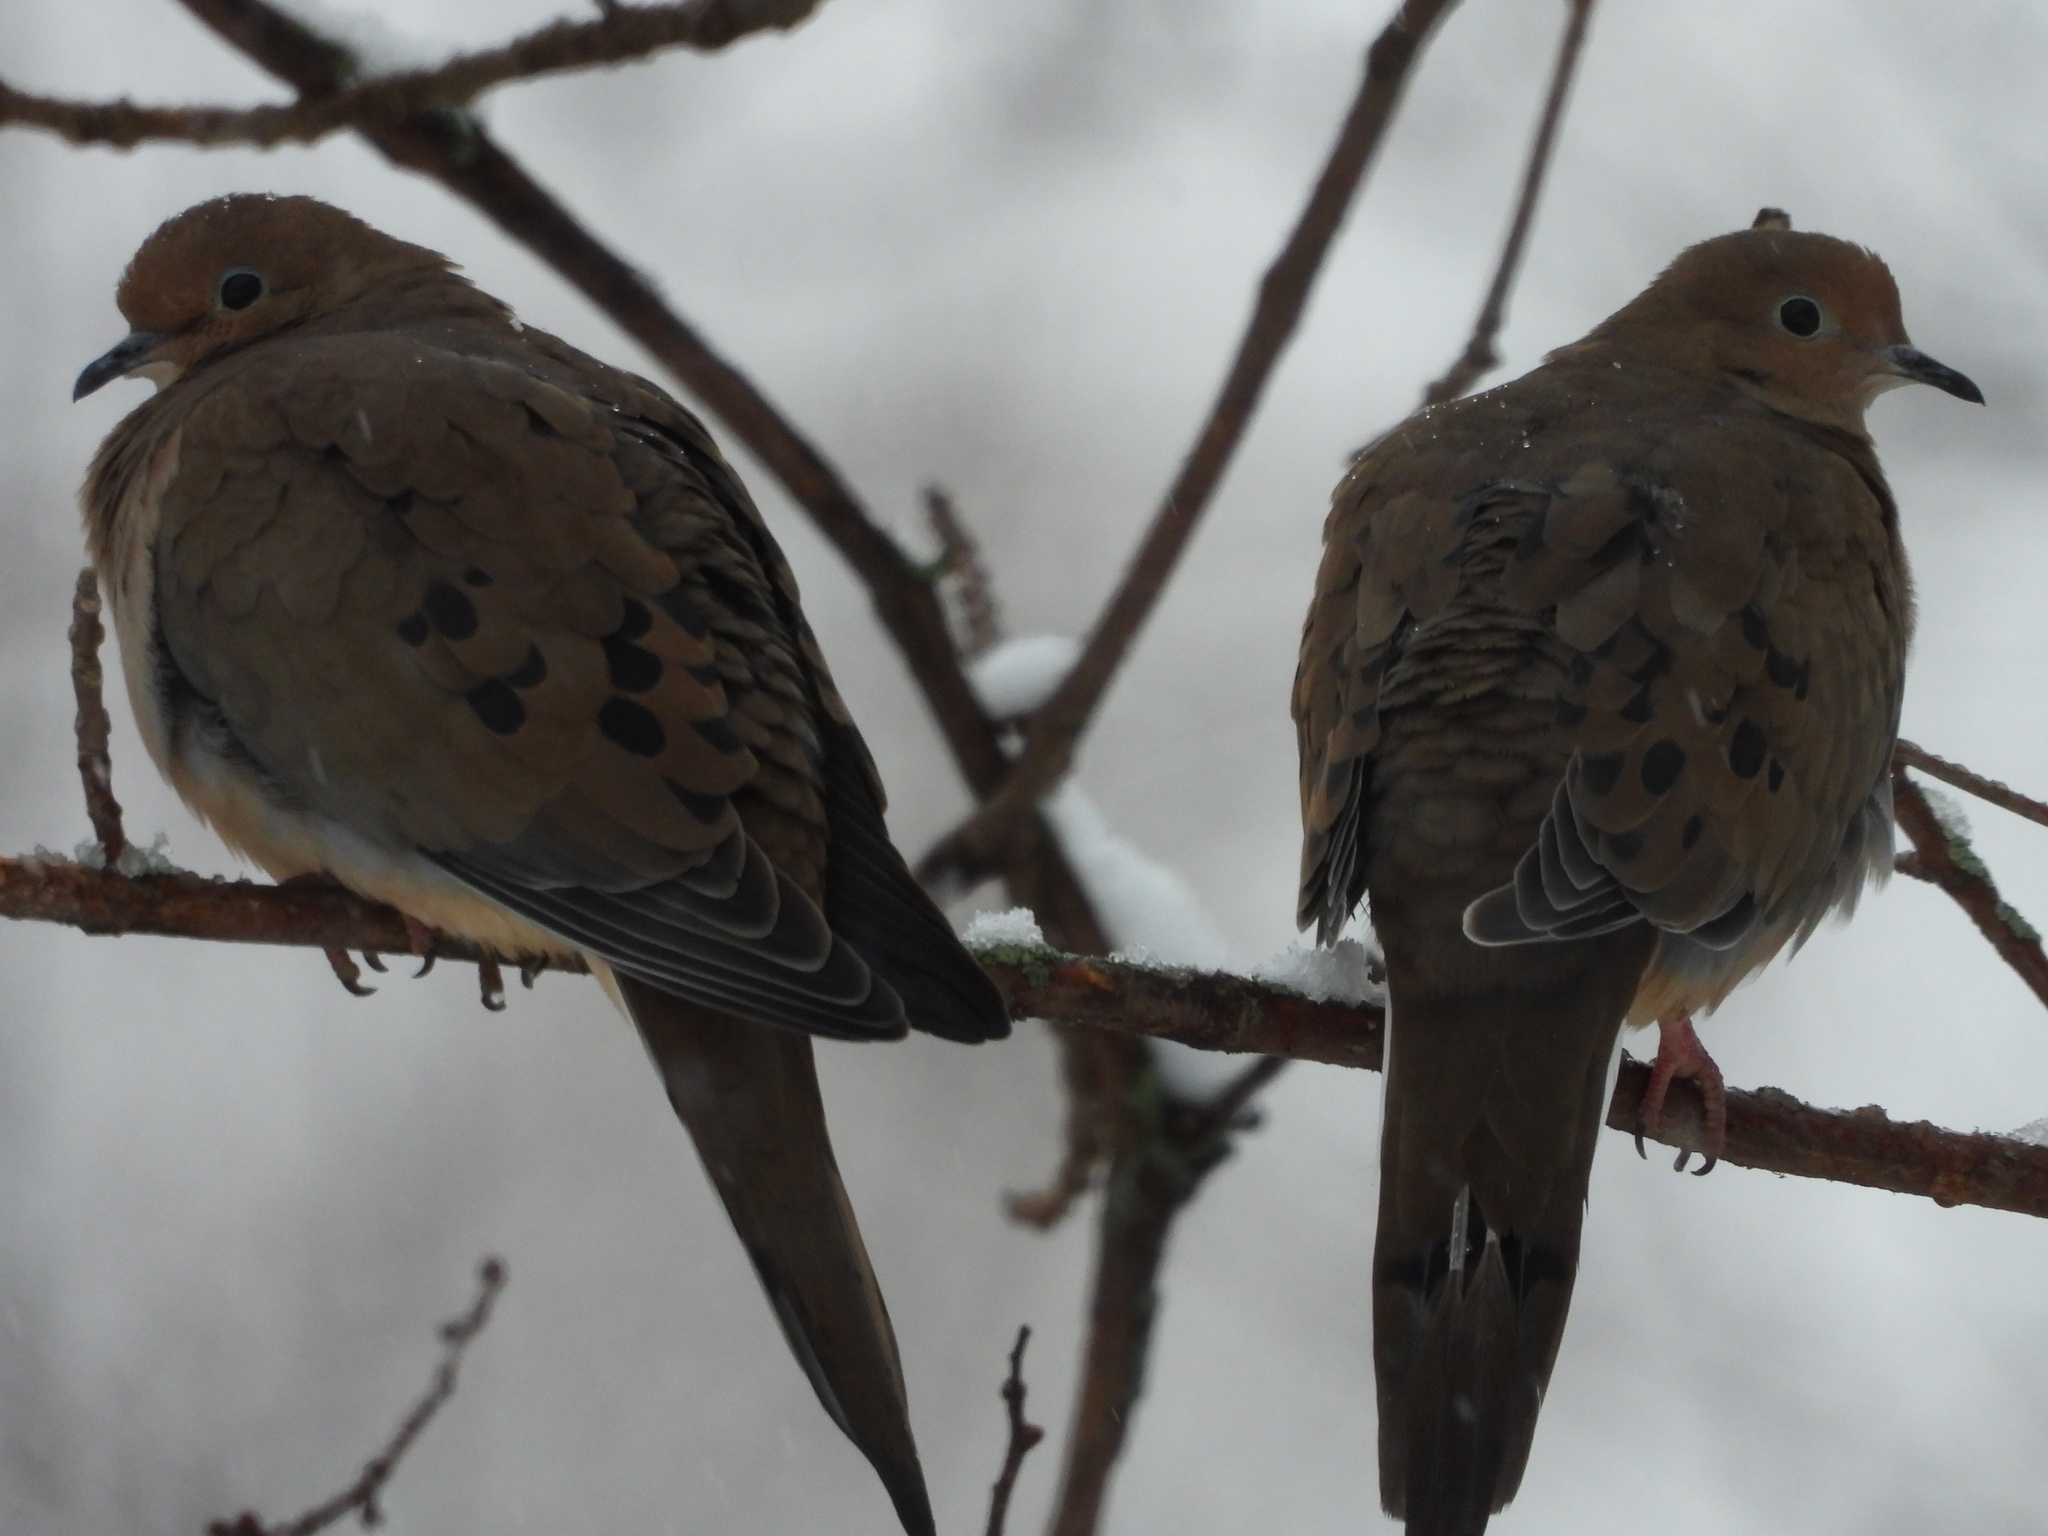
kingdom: Animalia
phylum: Chordata
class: Aves
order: Columbiformes
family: Columbidae
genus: Zenaida
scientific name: Zenaida macroura
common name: Mourning dove
